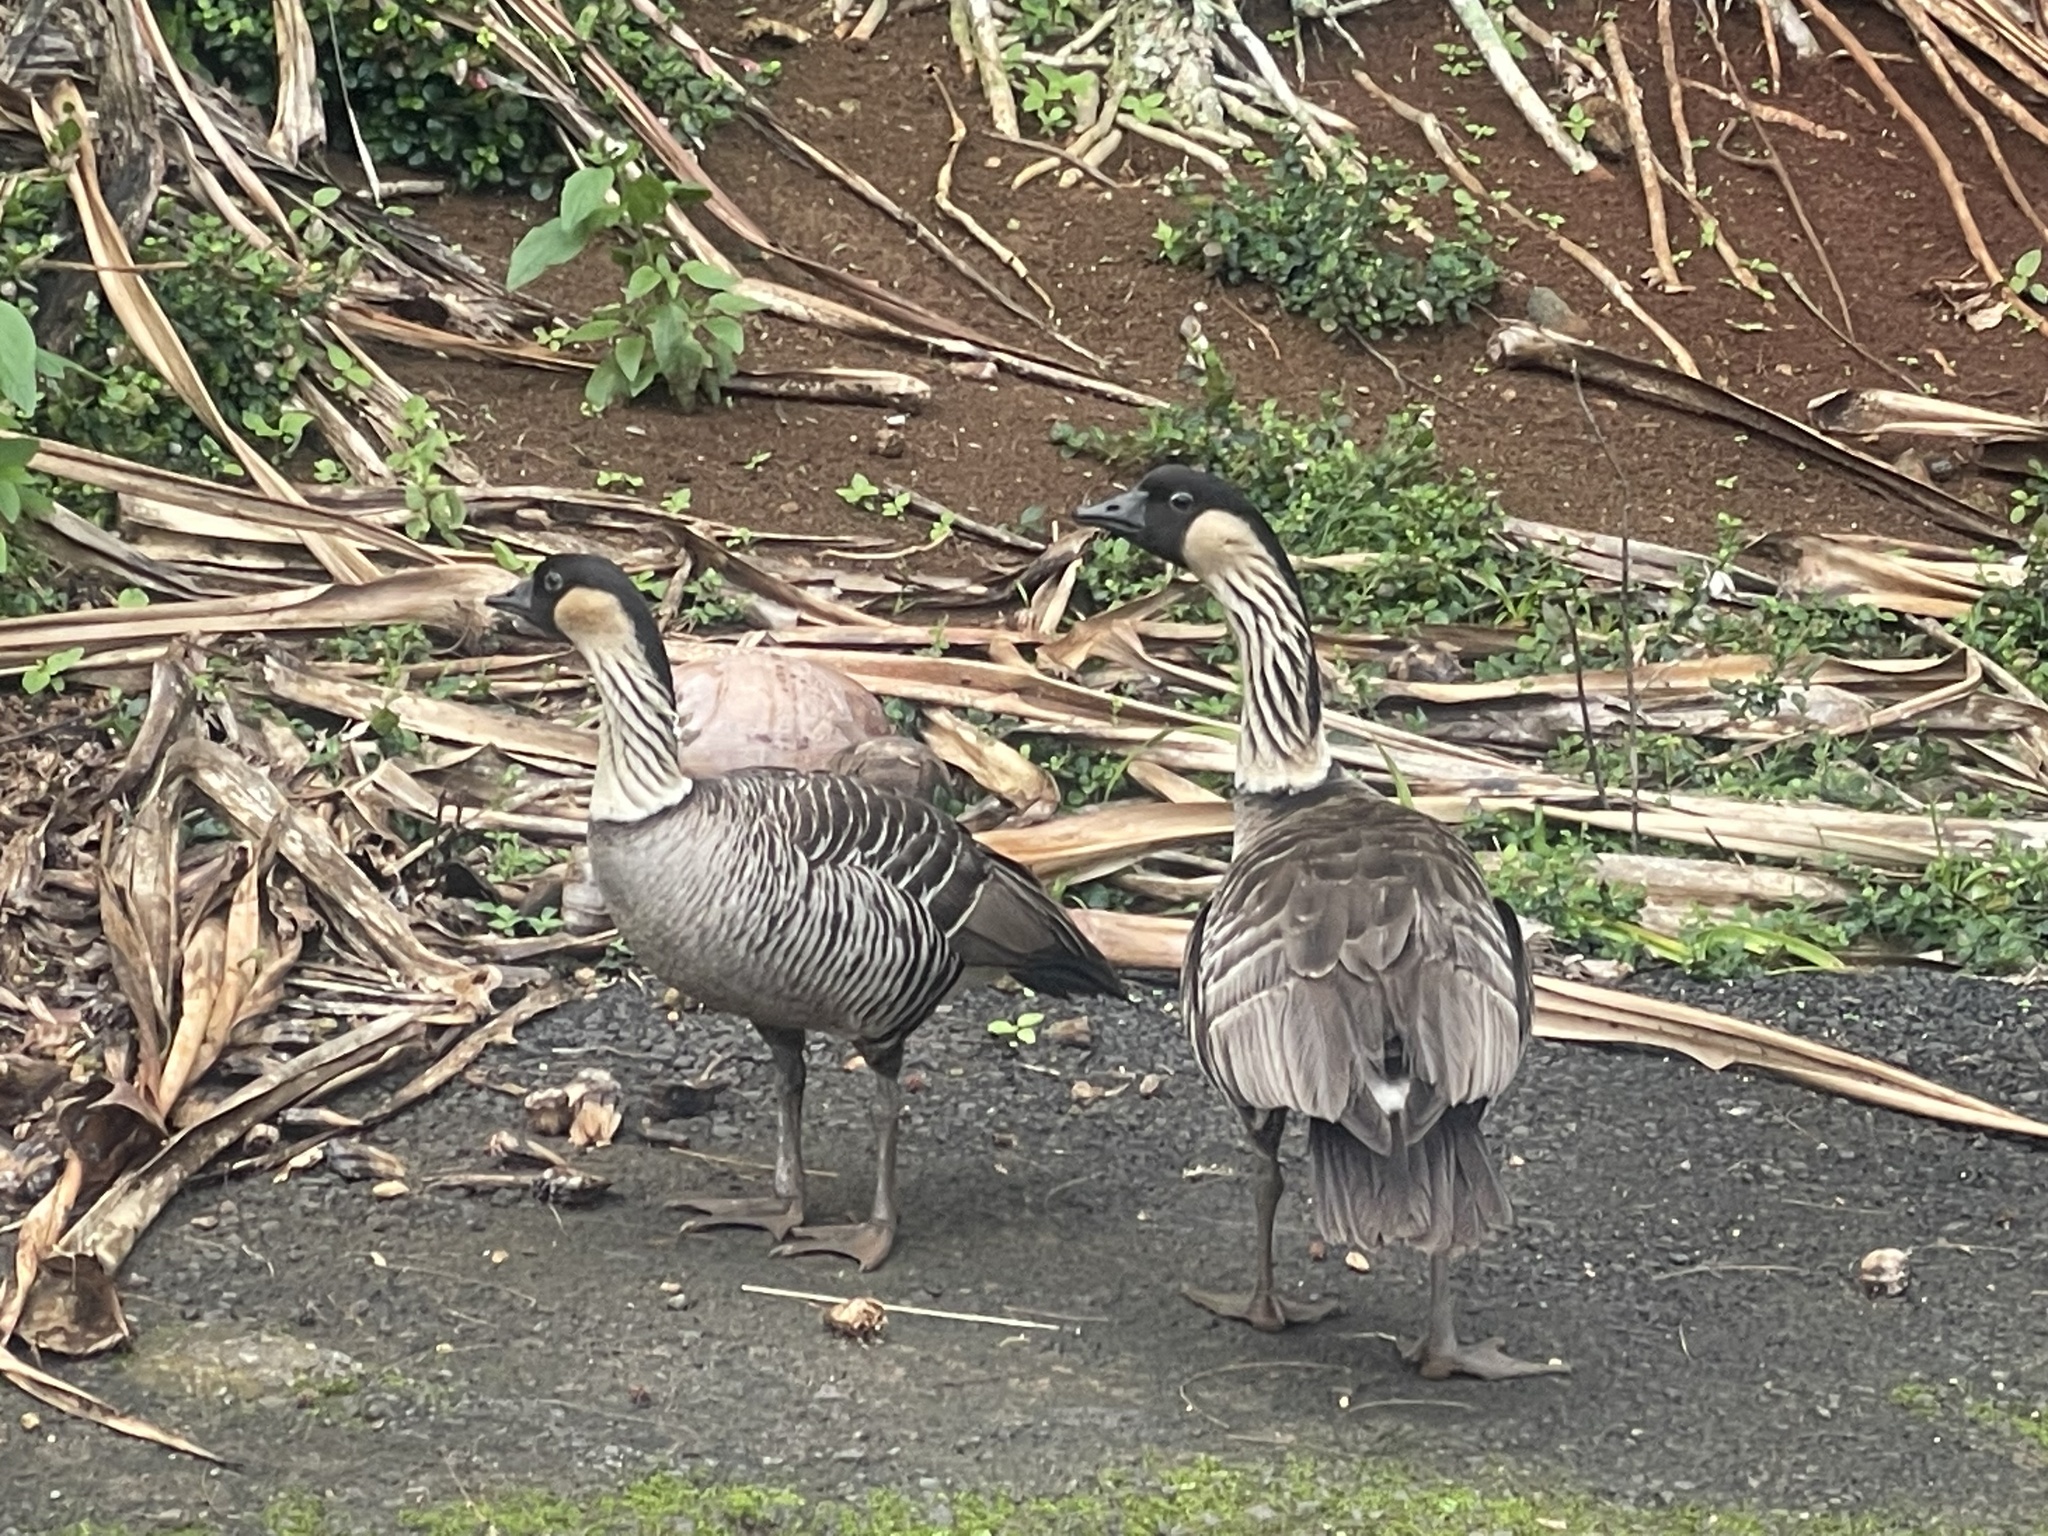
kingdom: Animalia
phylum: Chordata
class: Aves
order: Anseriformes
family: Anatidae
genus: Branta
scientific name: Branta sandvicensis
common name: Nene
